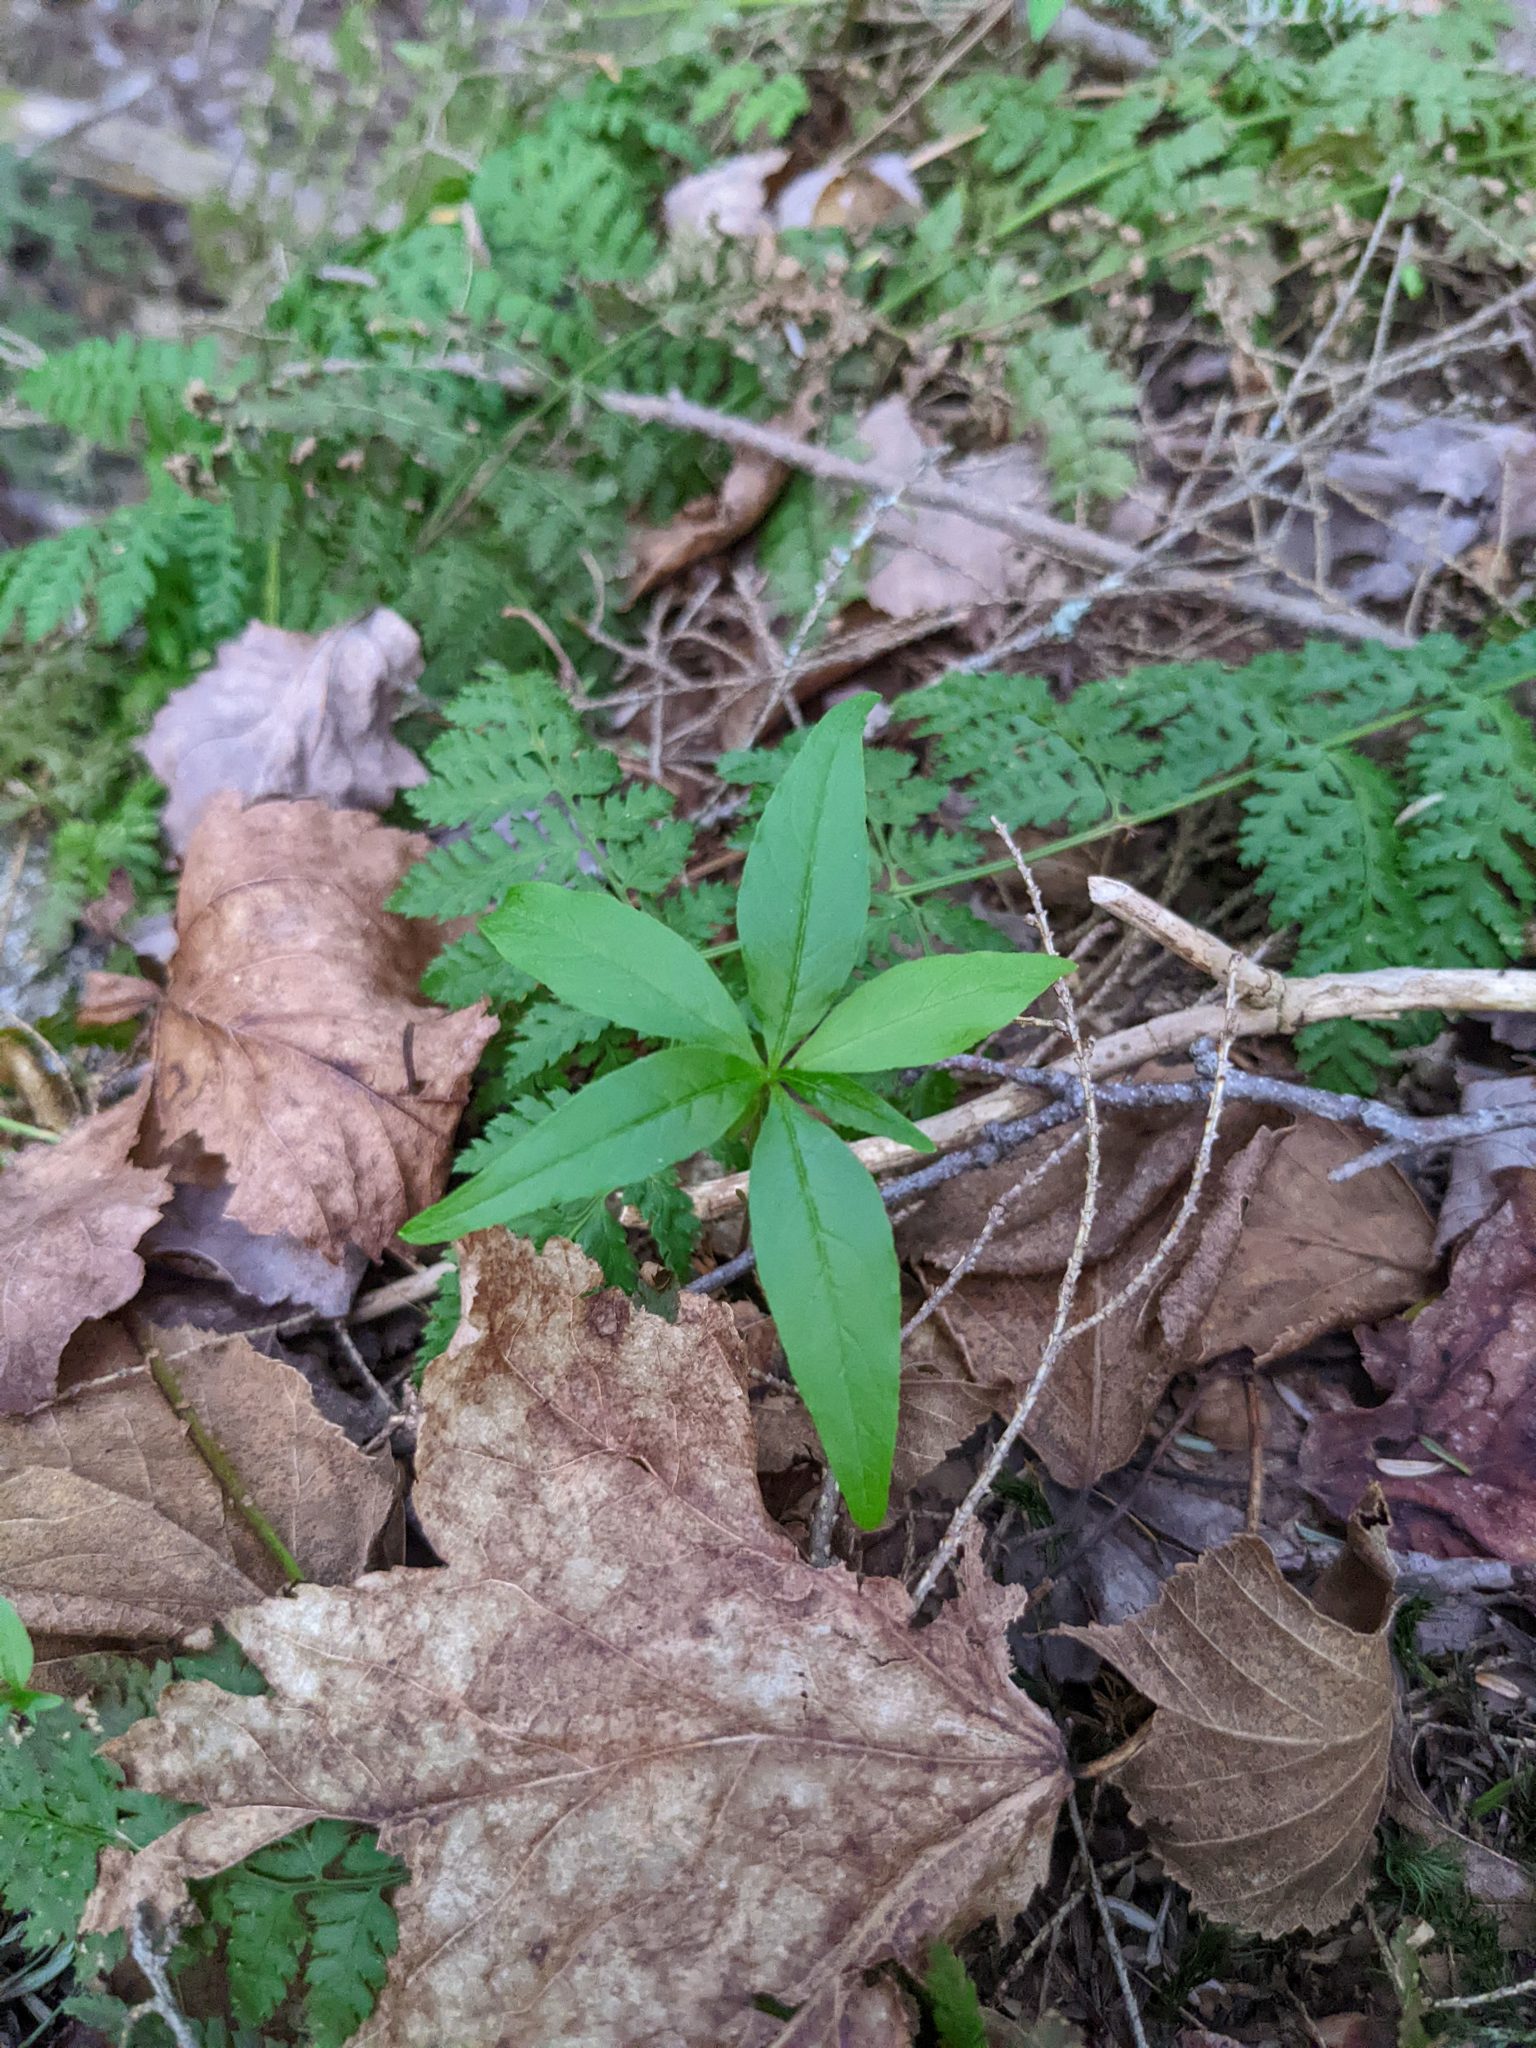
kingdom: Plantae
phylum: Tracheophyta
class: Magnoliopsida
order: Ericales
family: Primulaceae
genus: Lysimachia
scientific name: Lysimachia borealis
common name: American starflower
